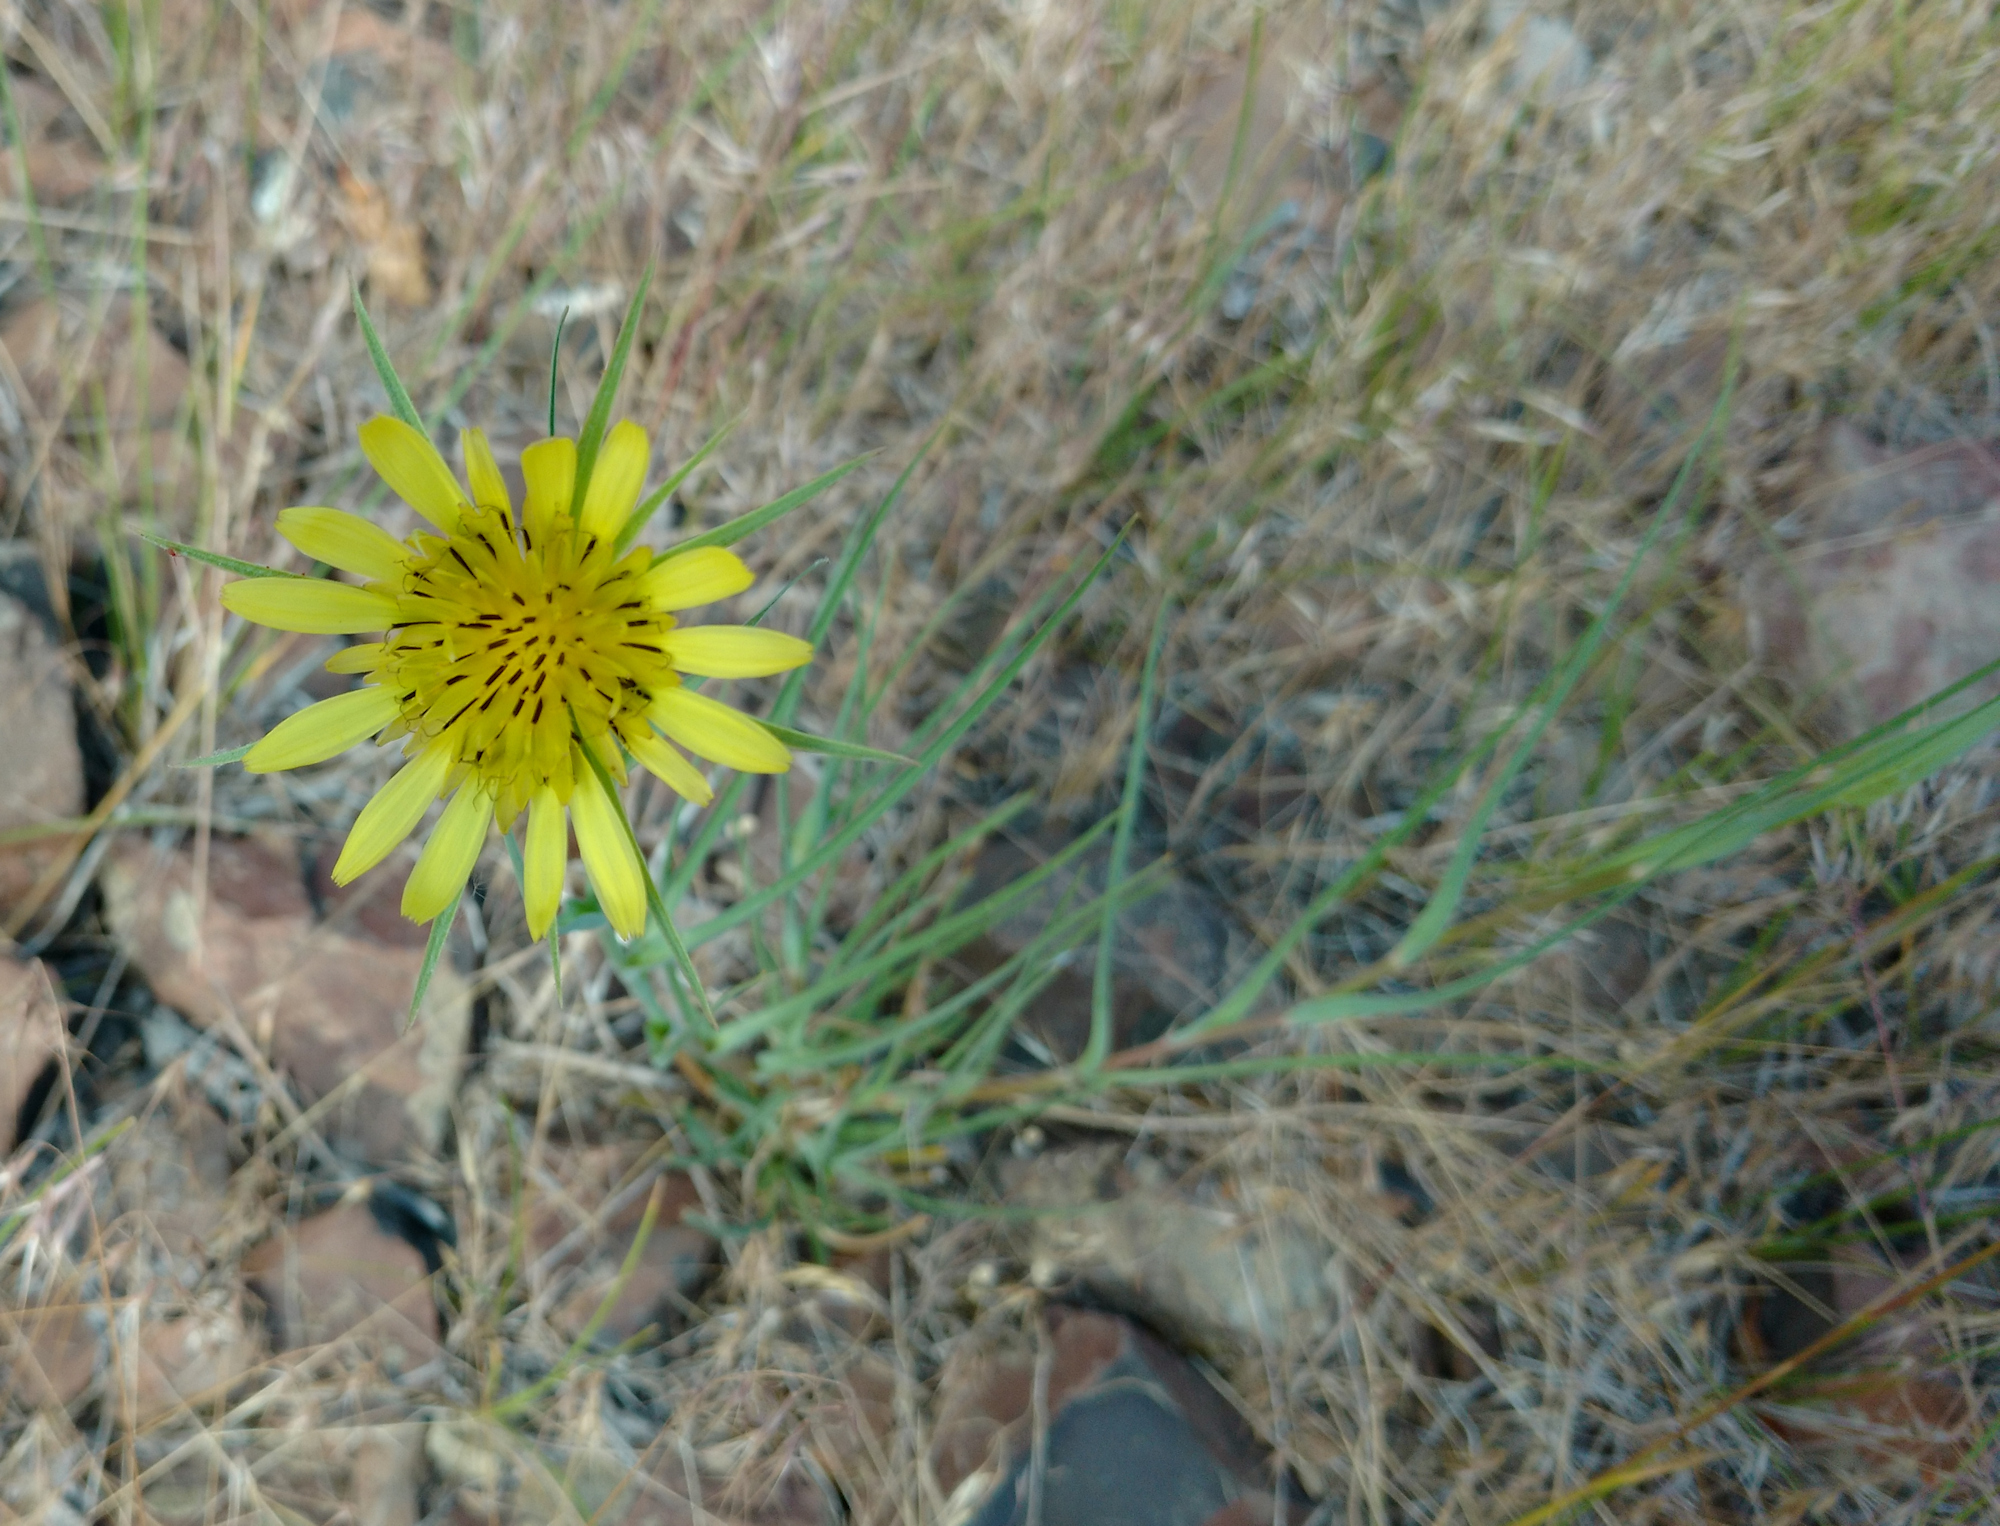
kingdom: Plantae
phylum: Tracheophyta
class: Magnoliopsida
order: Asterales
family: Asteraceae
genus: Tragopogon
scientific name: Tragopogon dubius
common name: Yellow salsify
